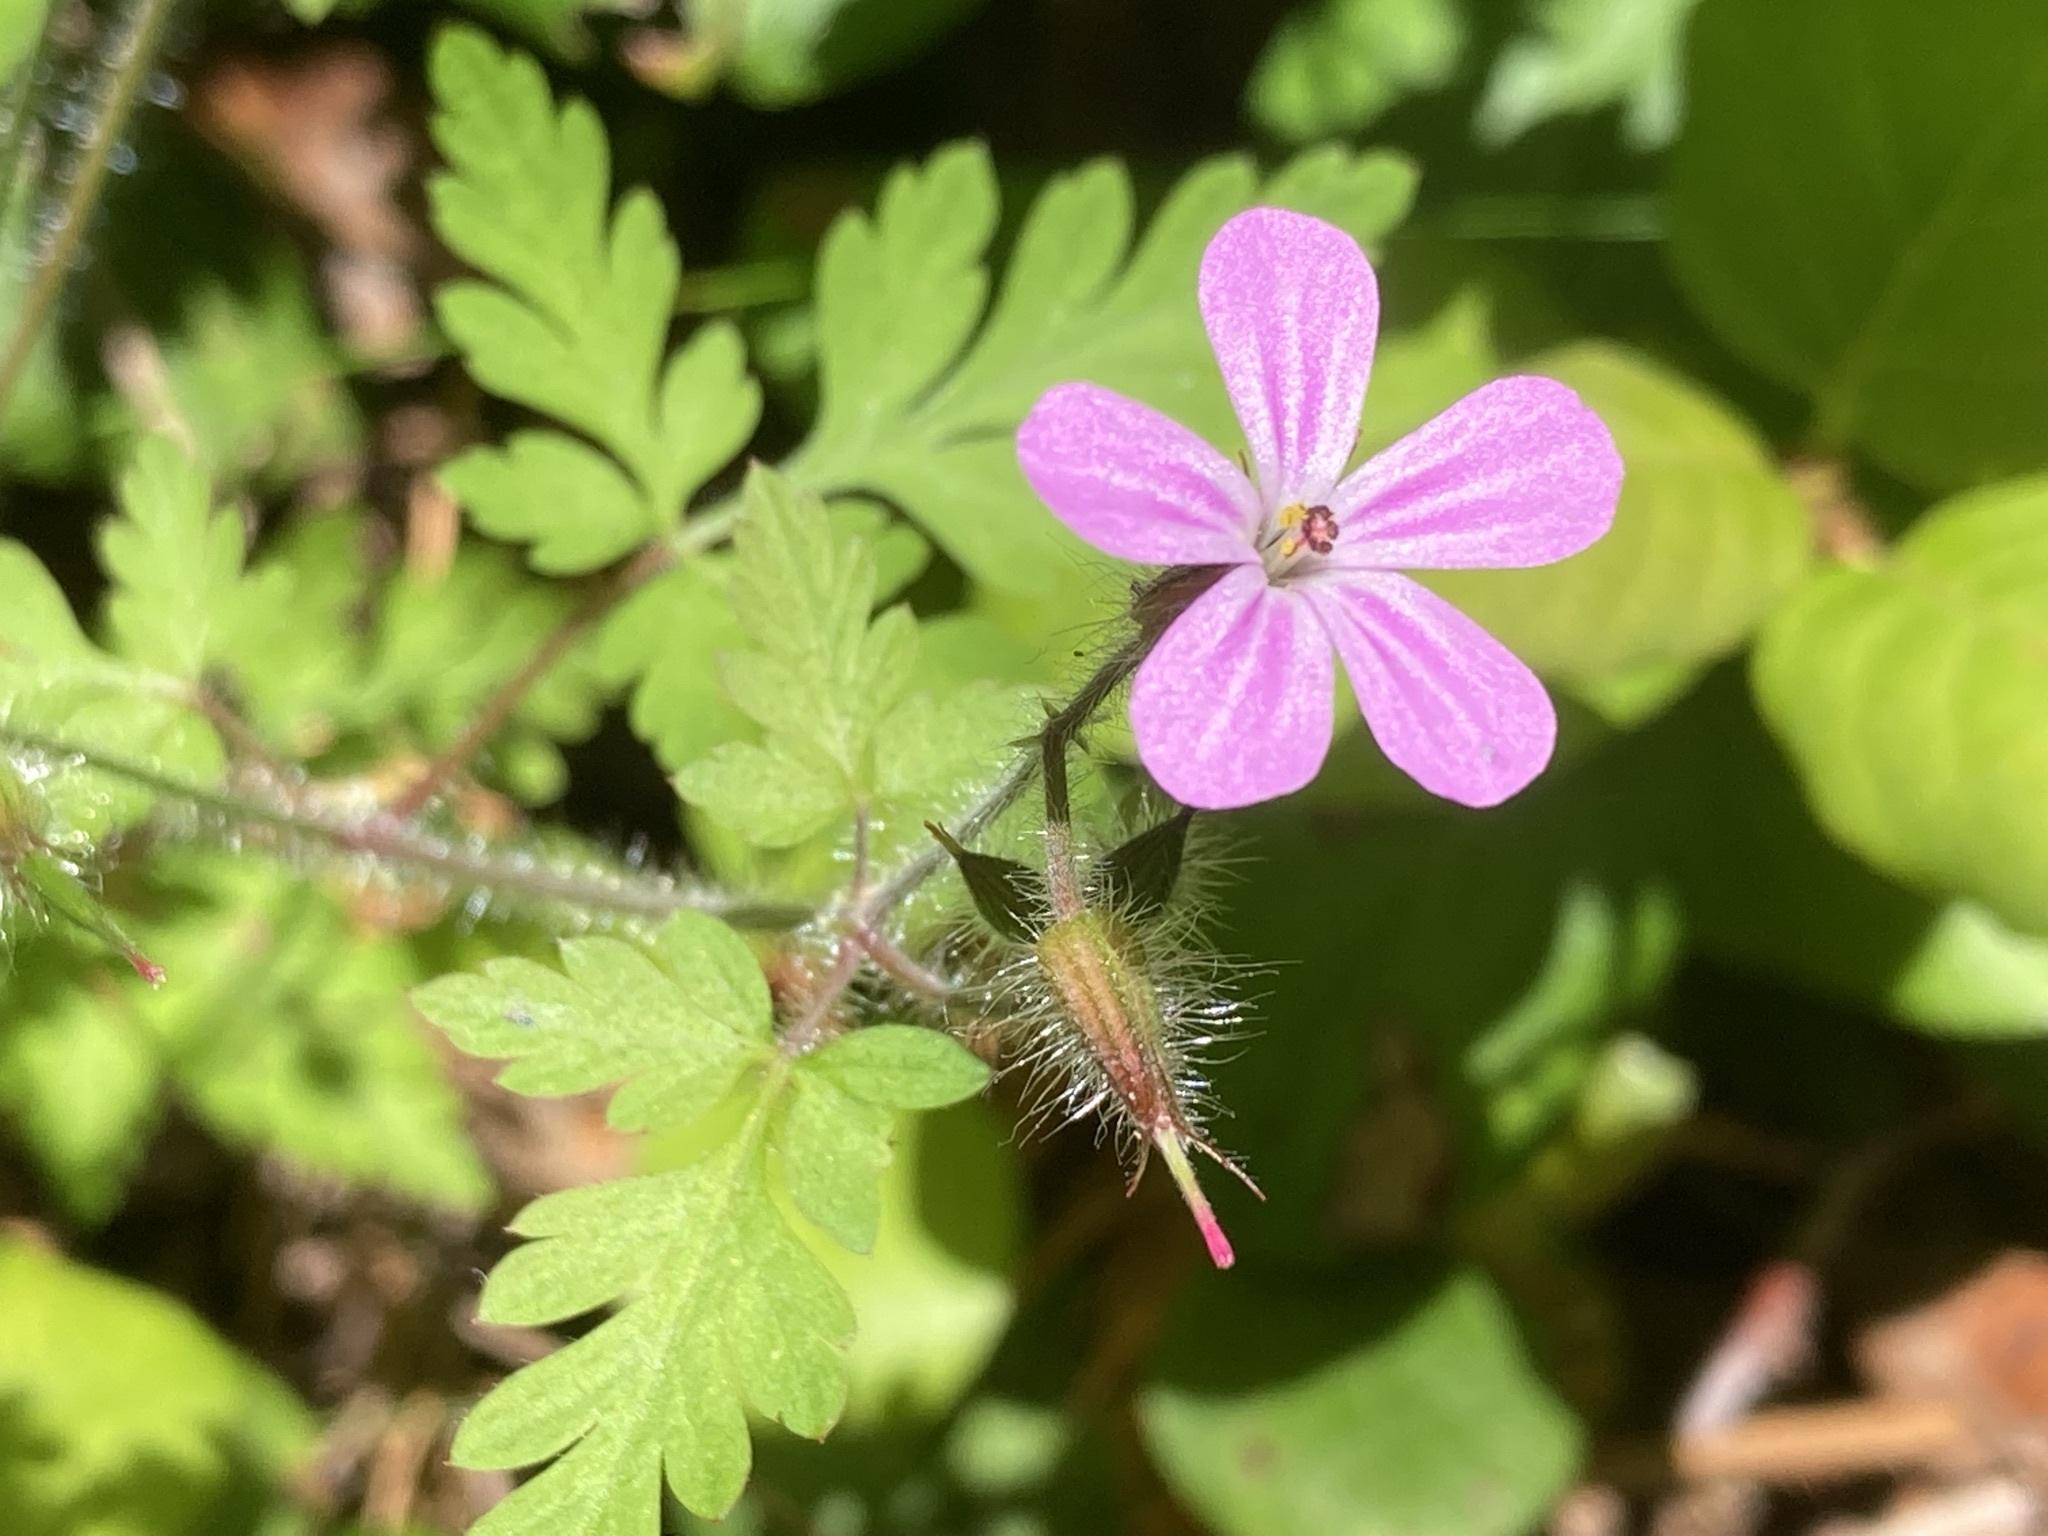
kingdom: Plantae
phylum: Tracheophyta
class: Magnoliopsida
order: Geraniales
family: Geraniaceae
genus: Geranium
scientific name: Geranium robertianum
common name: Herb-robert
